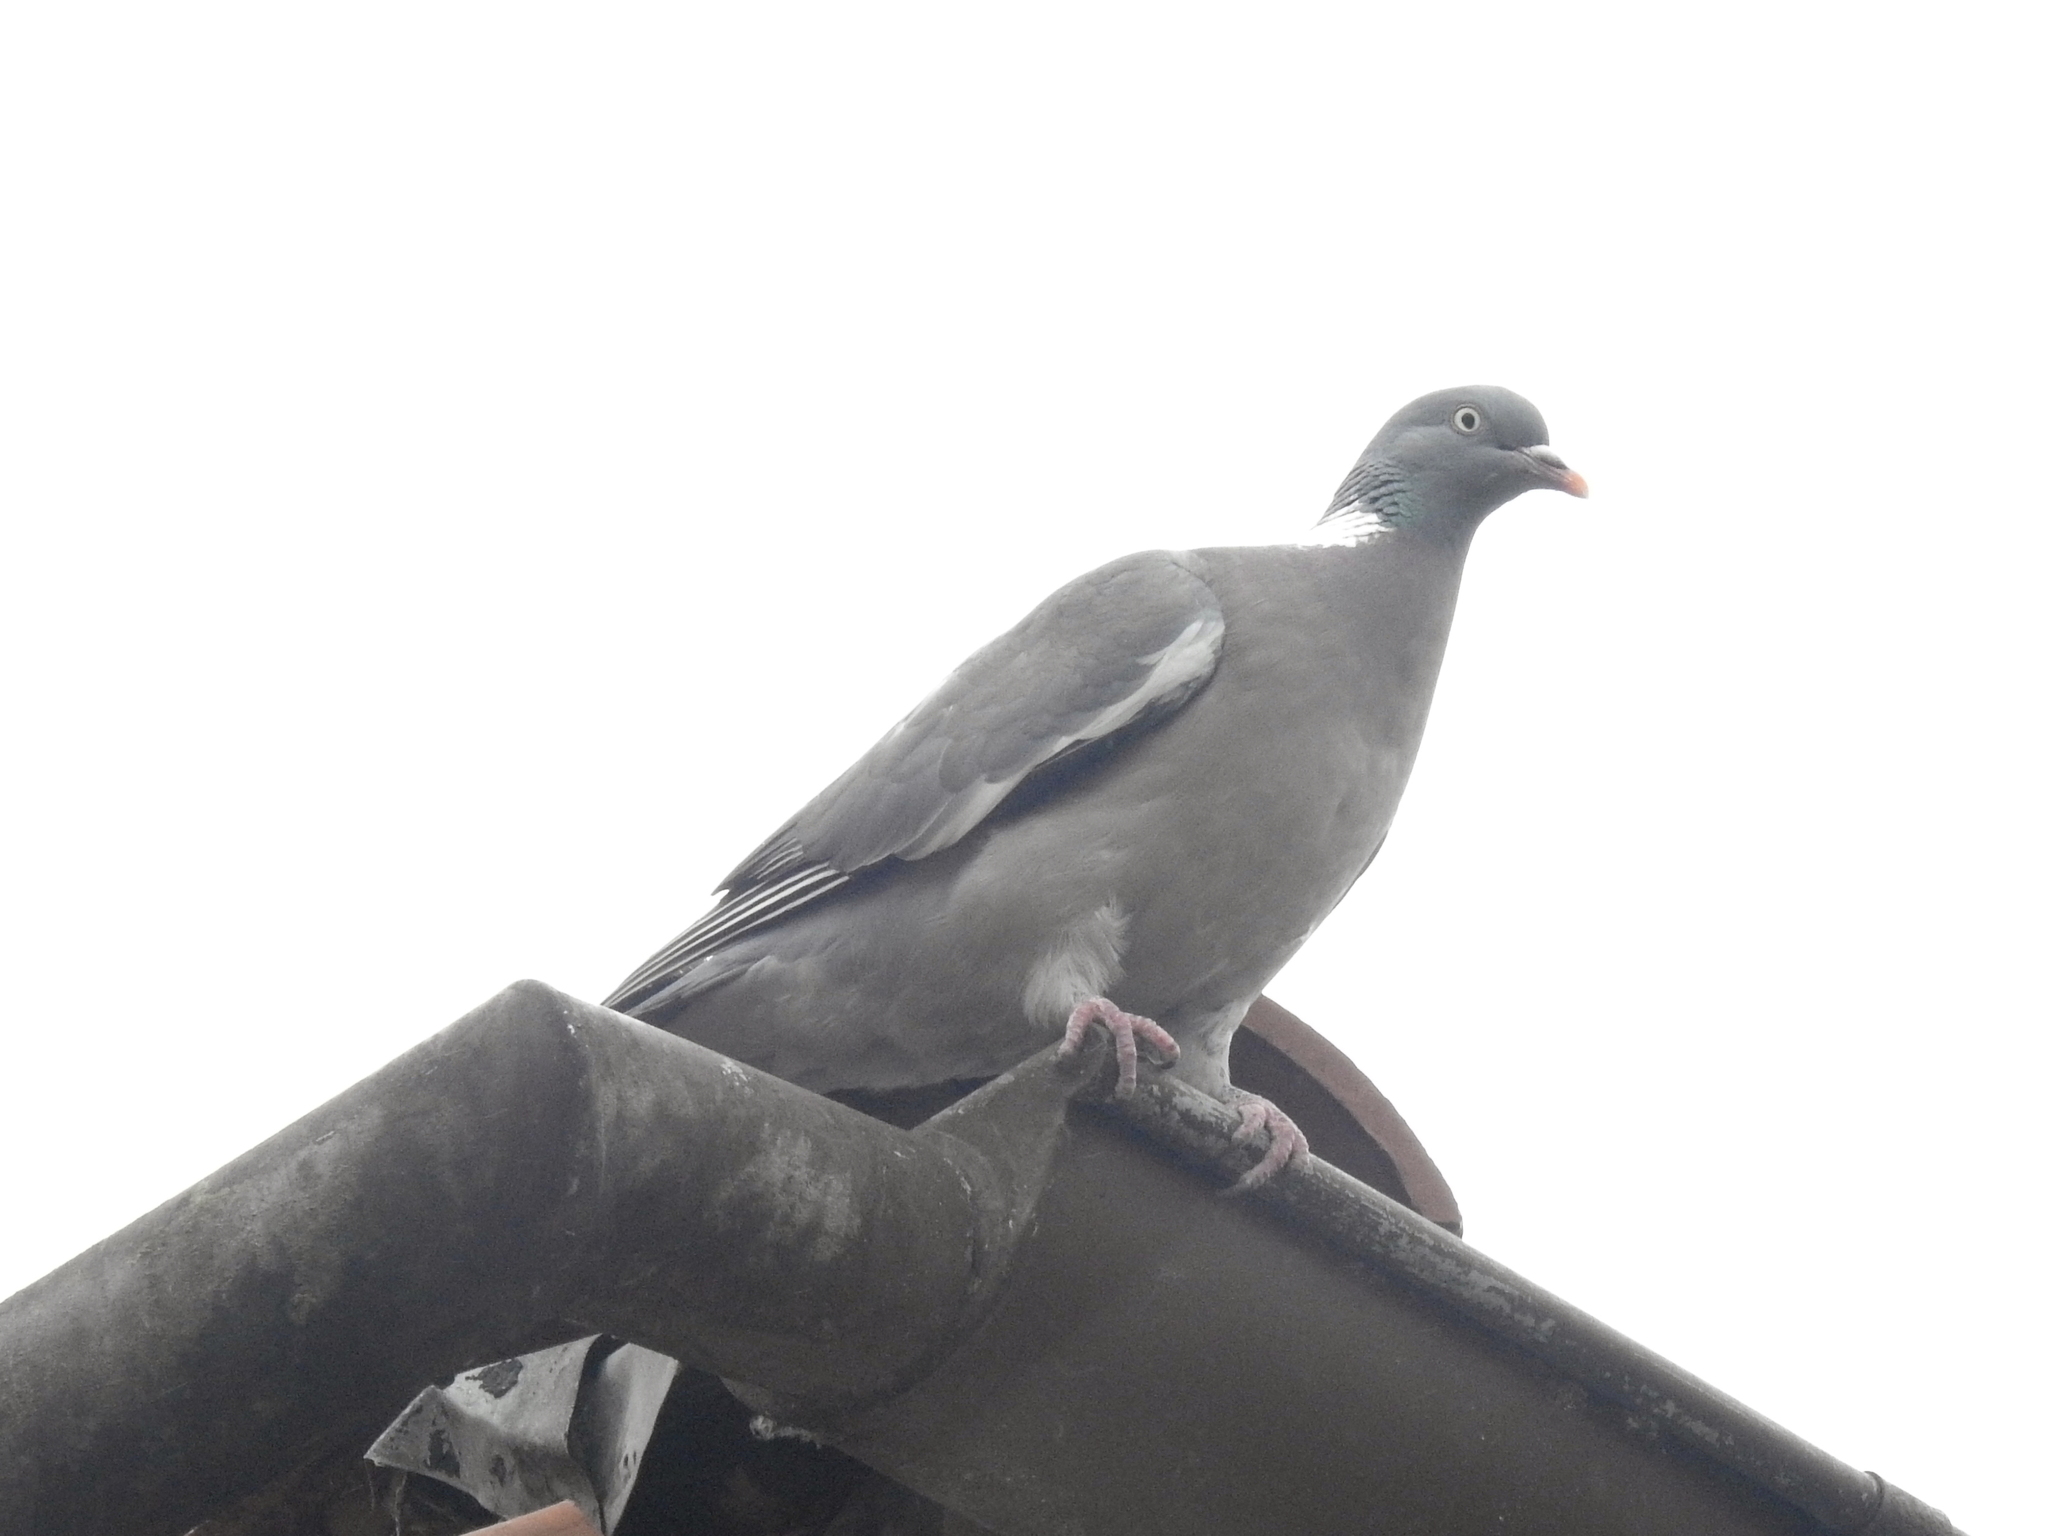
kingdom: Animalia
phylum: Chordata
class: Aves
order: Columbiformes
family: Columbidae
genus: Columba
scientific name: Columba palumbus
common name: Common wood pigeon
